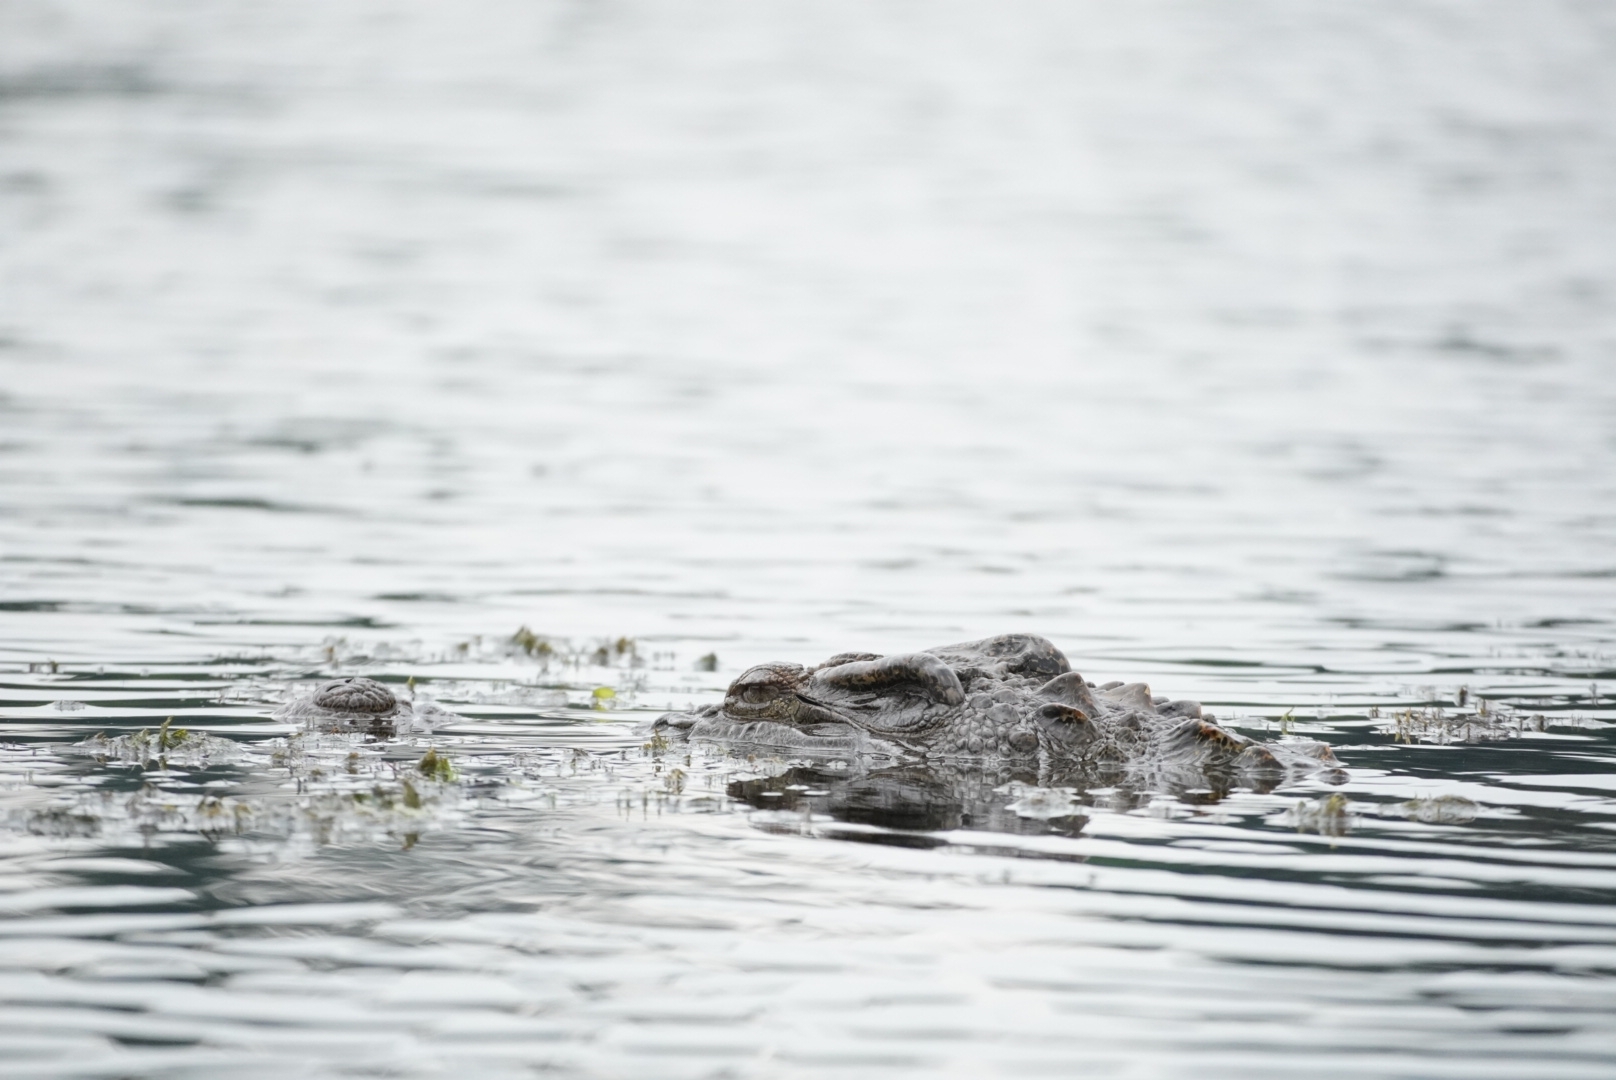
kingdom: Animalia
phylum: Chordata
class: Crocodylia
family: Crocodylidae
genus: Crocodylus
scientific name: Crocodylus siamensis
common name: Siamese crocodile
